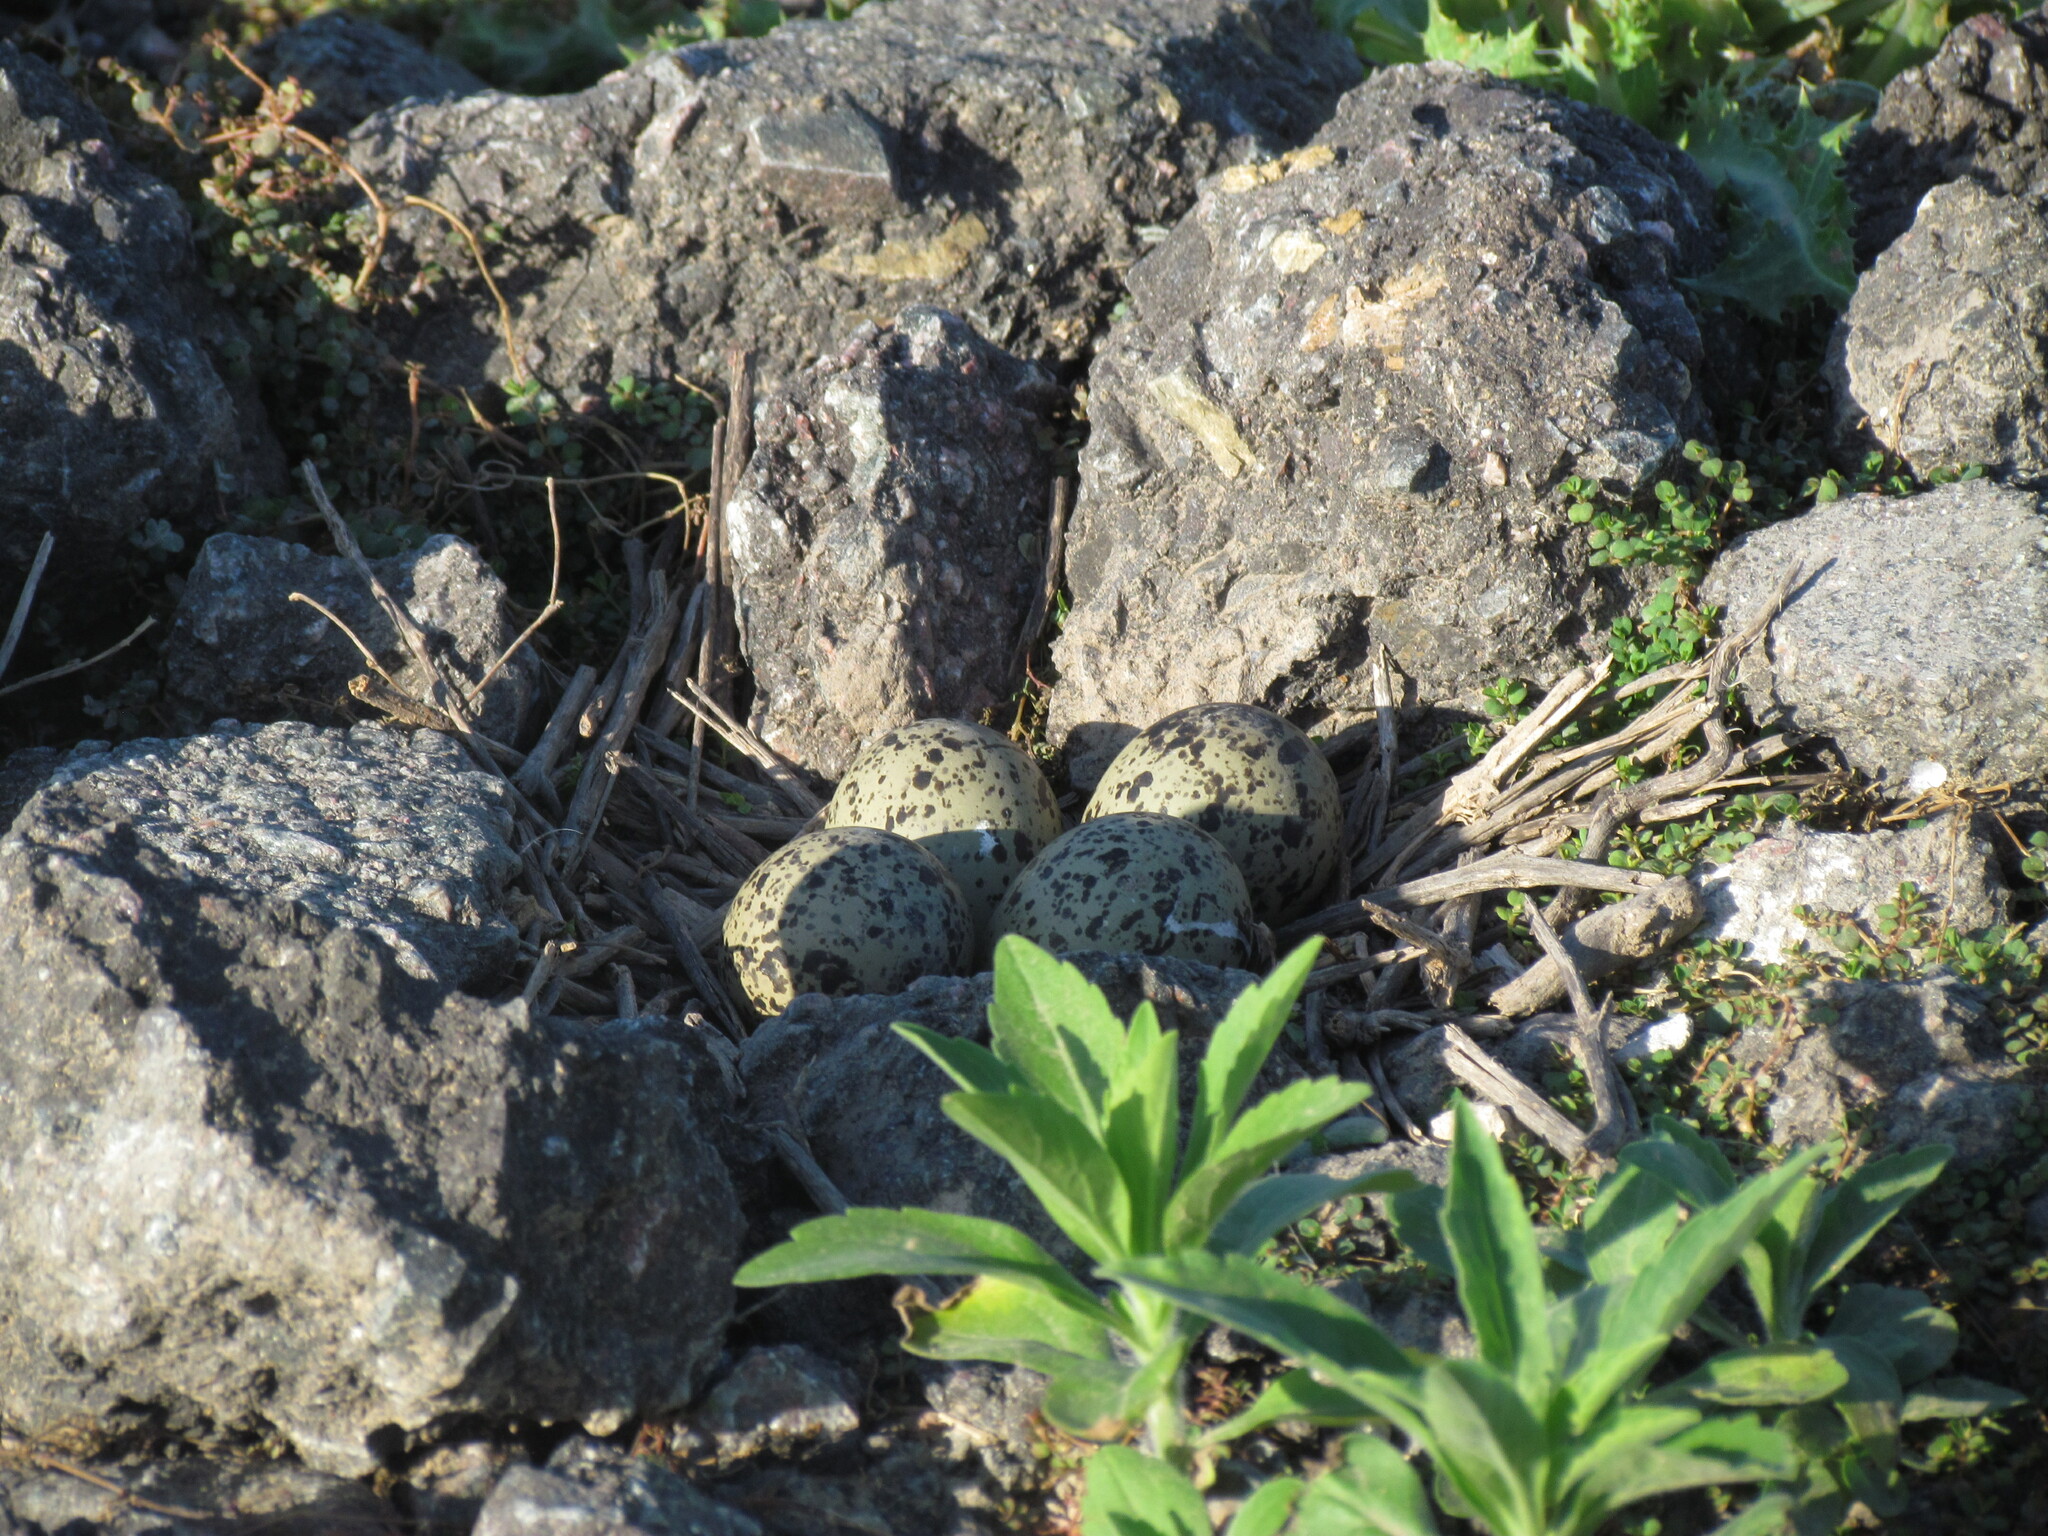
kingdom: Animalia
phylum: Chordata
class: Aves
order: Charadriiformes
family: Charadriidae
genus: Vanellus
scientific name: Vanellus chilensis
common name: Southern lapwing
